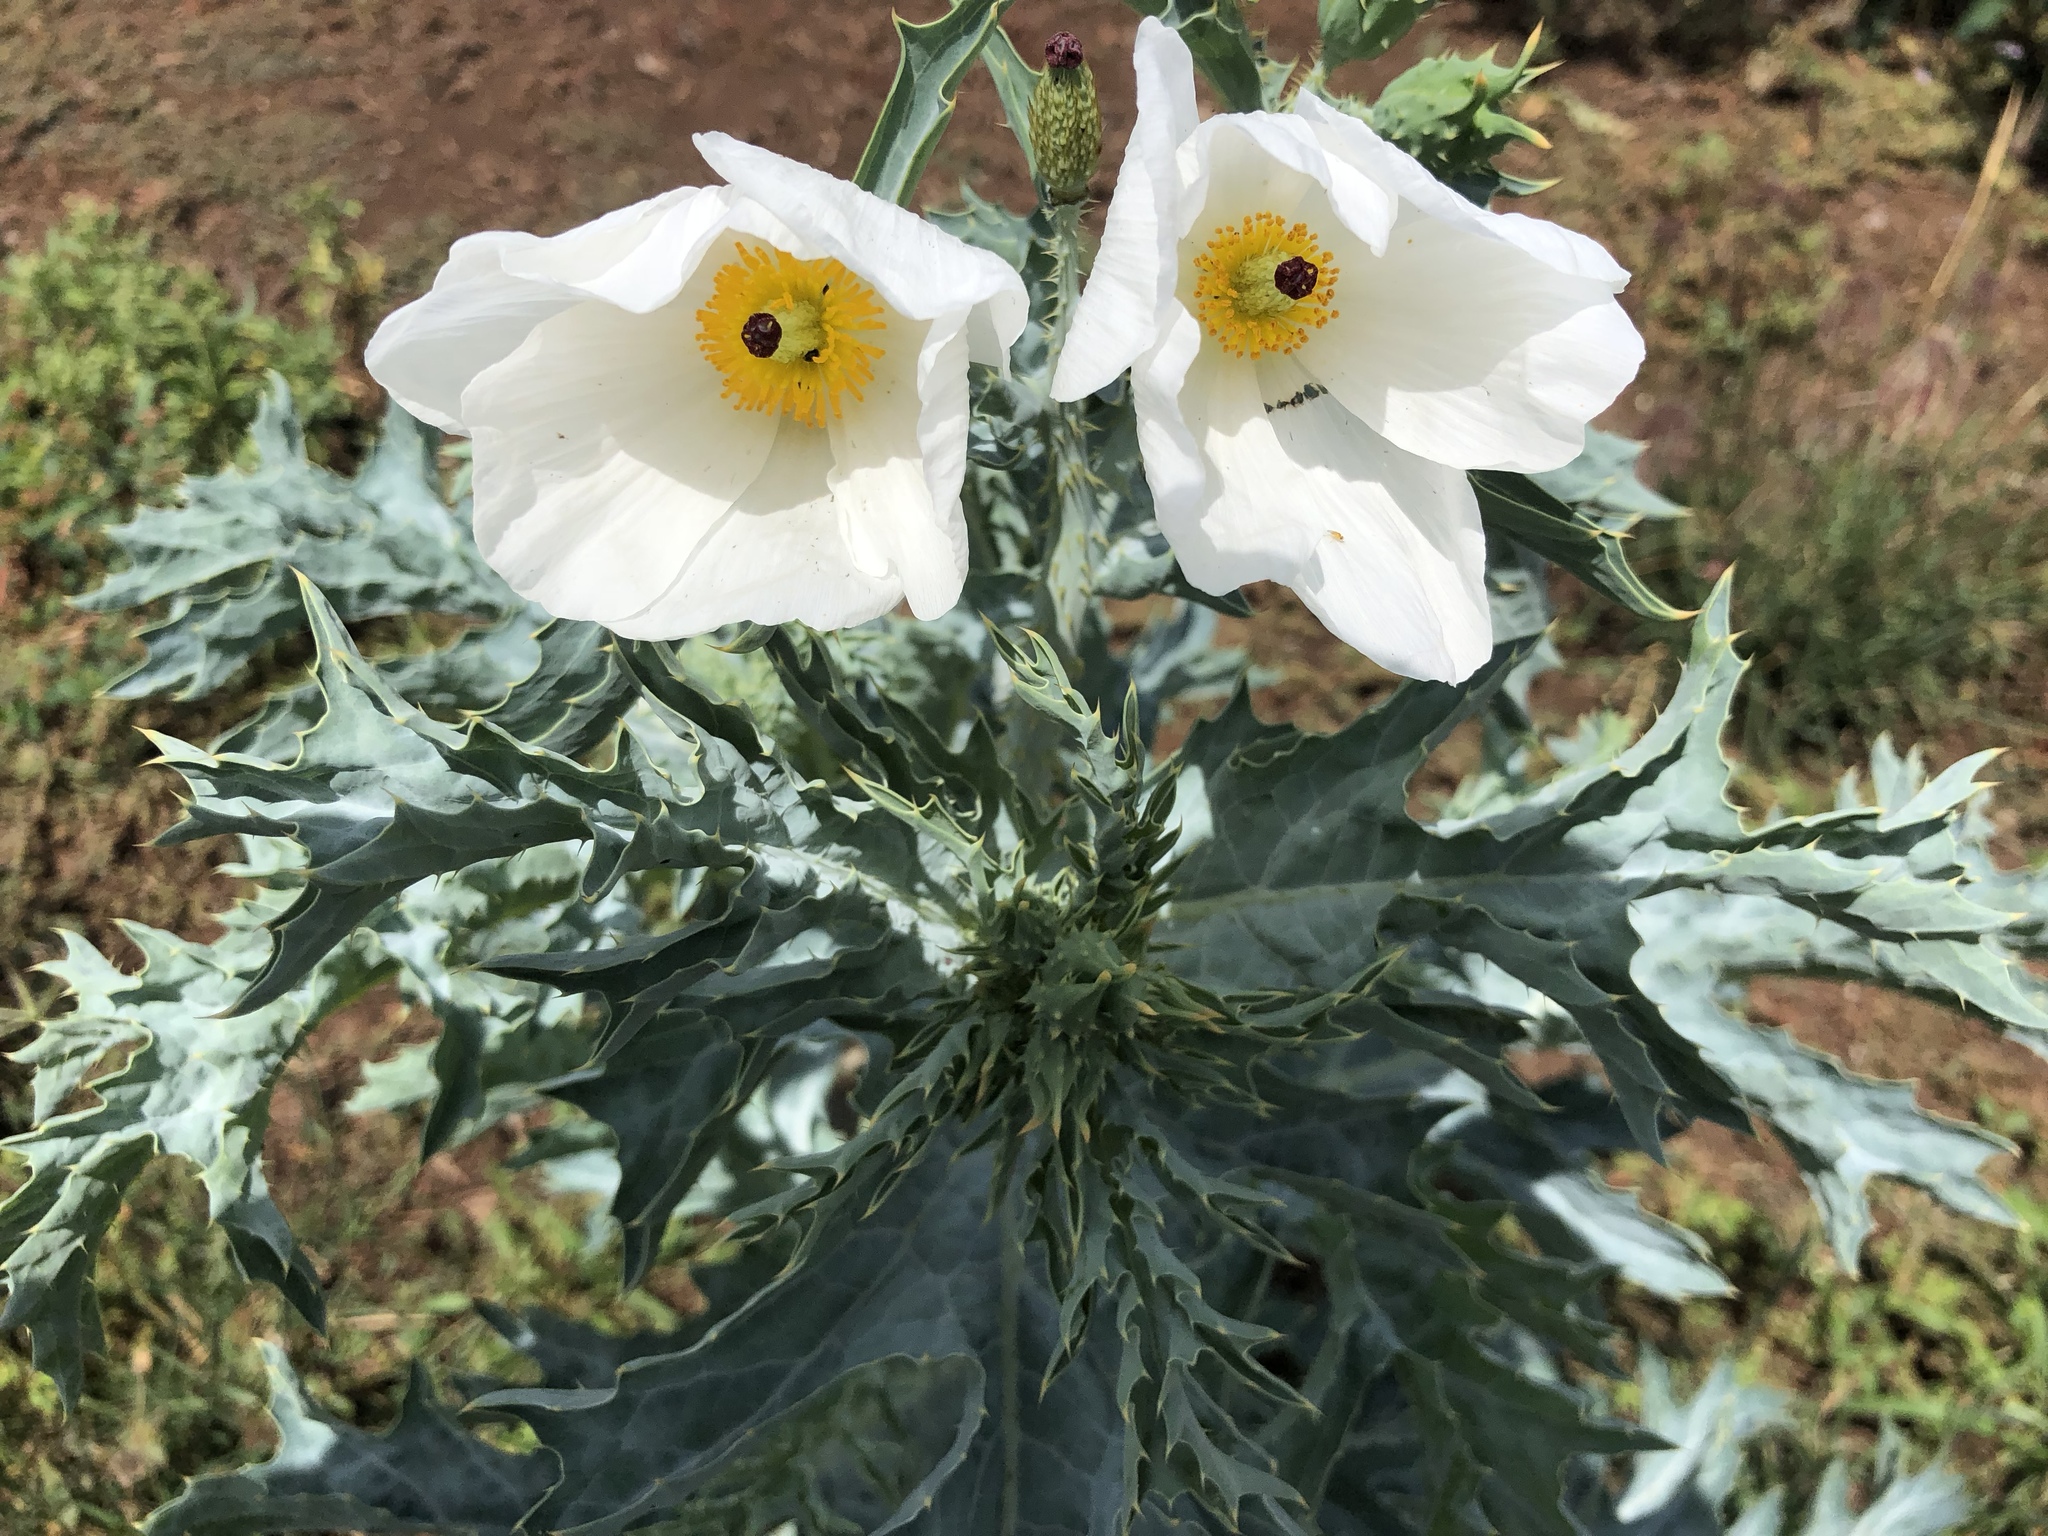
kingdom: Plantae
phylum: Tracheophyta
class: Magnoliopsida
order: Ranunculales
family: Papaveraceae
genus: Argemone
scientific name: Argemone glauca
